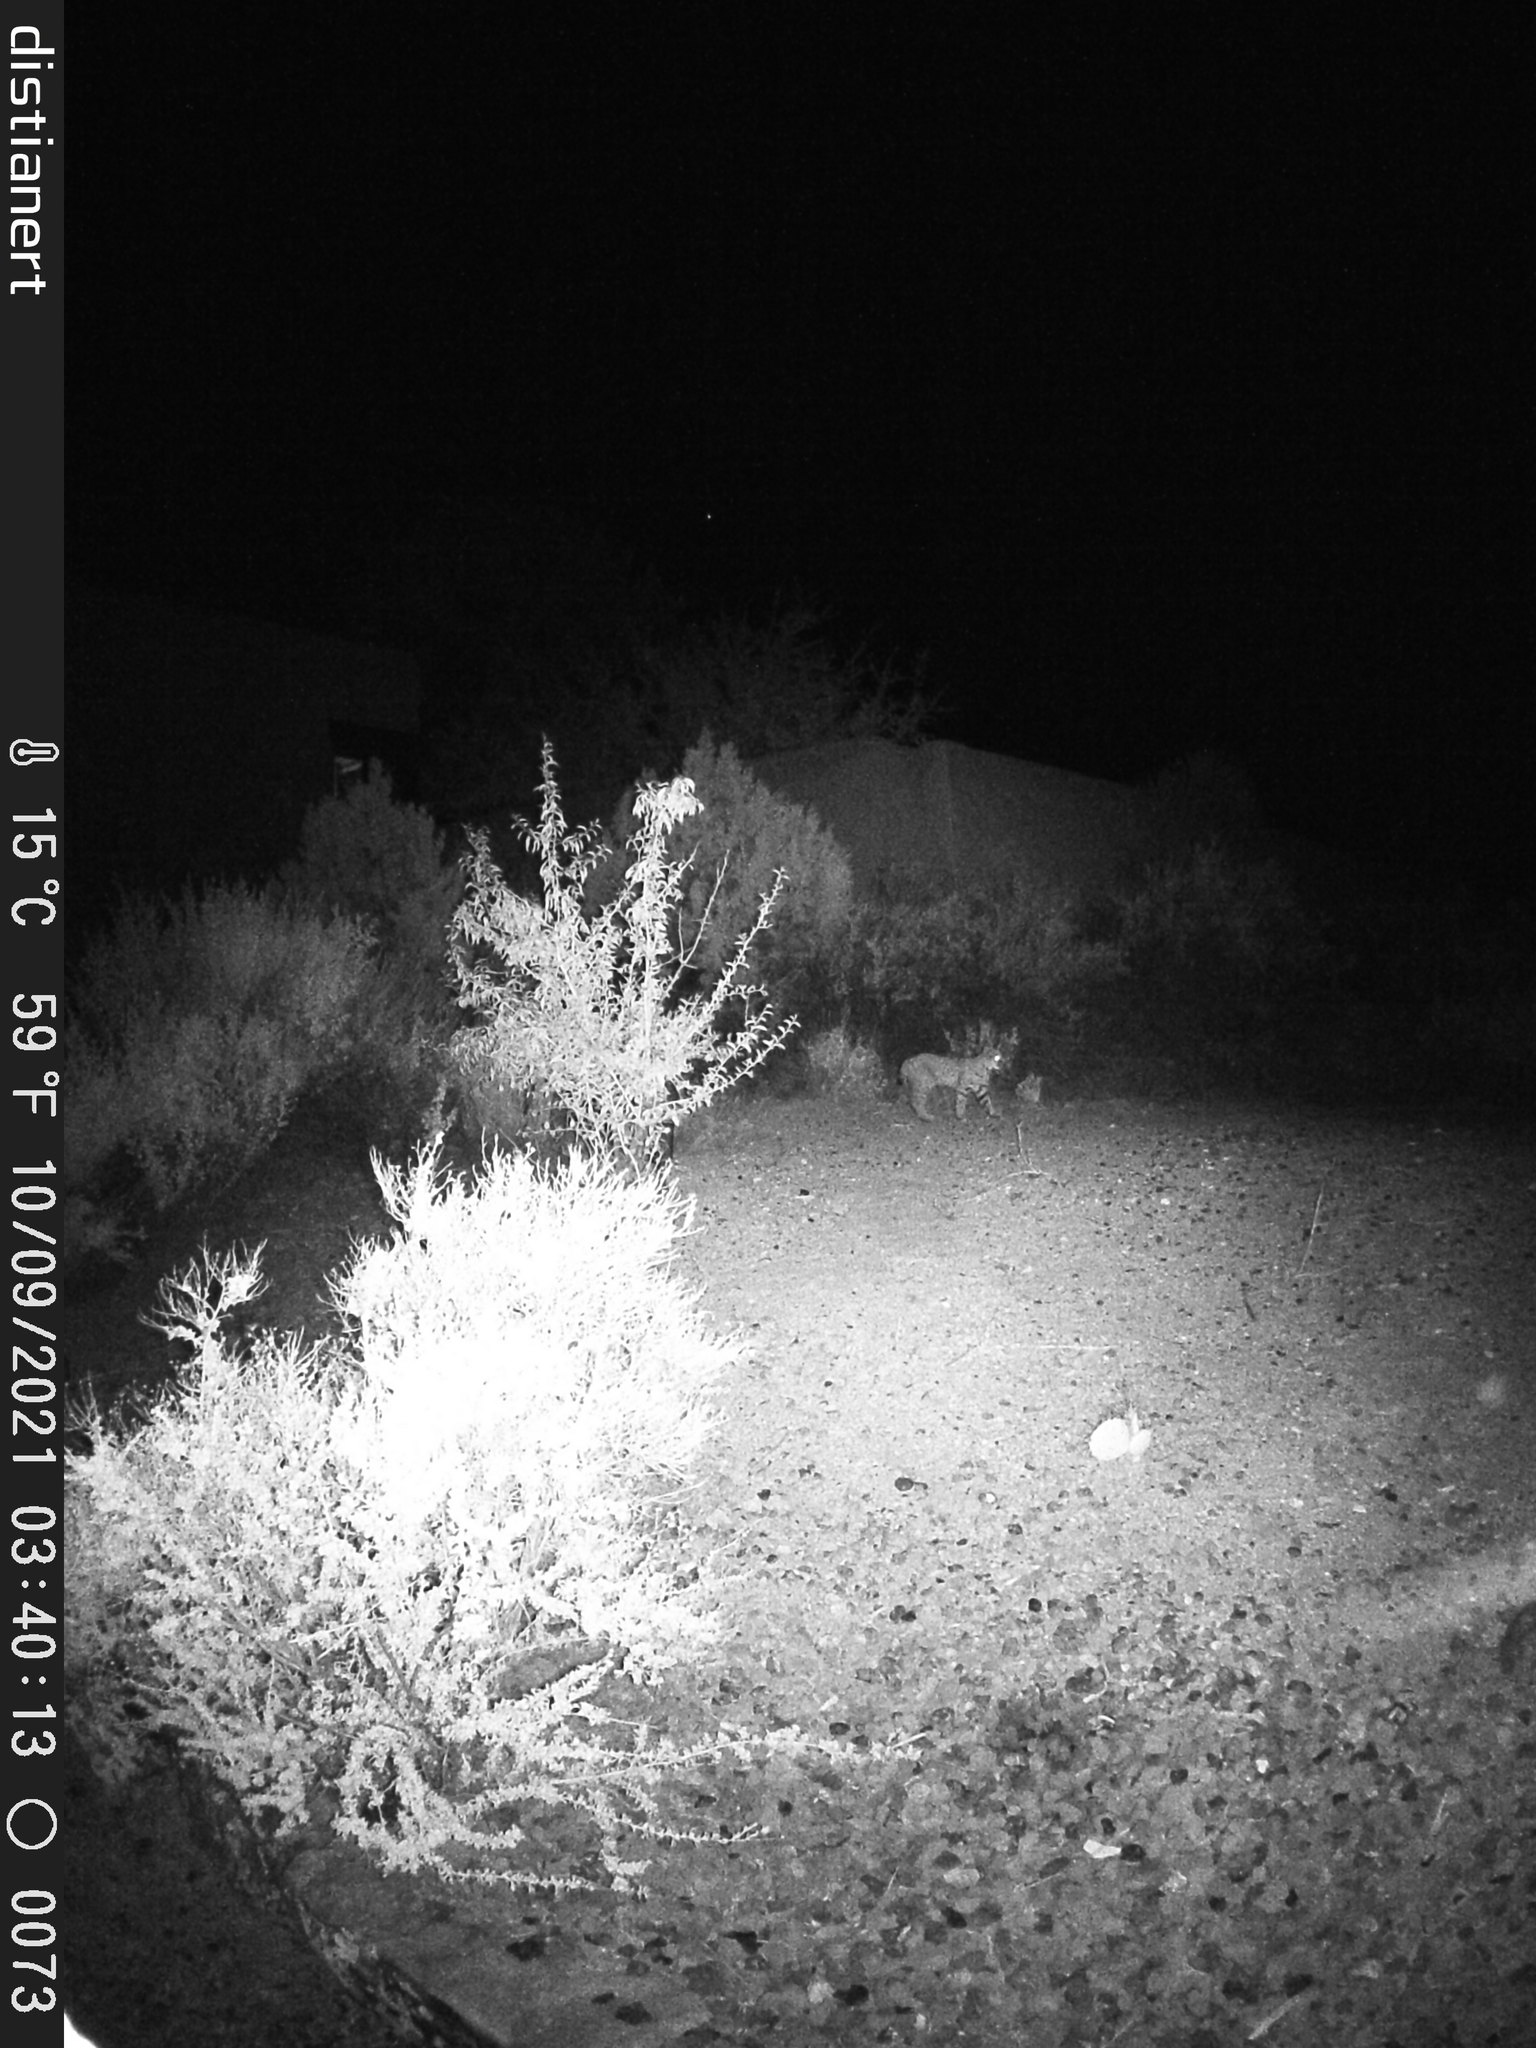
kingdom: Animalia
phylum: Chordata
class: Mammalia
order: Carnivora
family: Felidae
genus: Lynx
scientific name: Lynx rufus
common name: Bobcat
